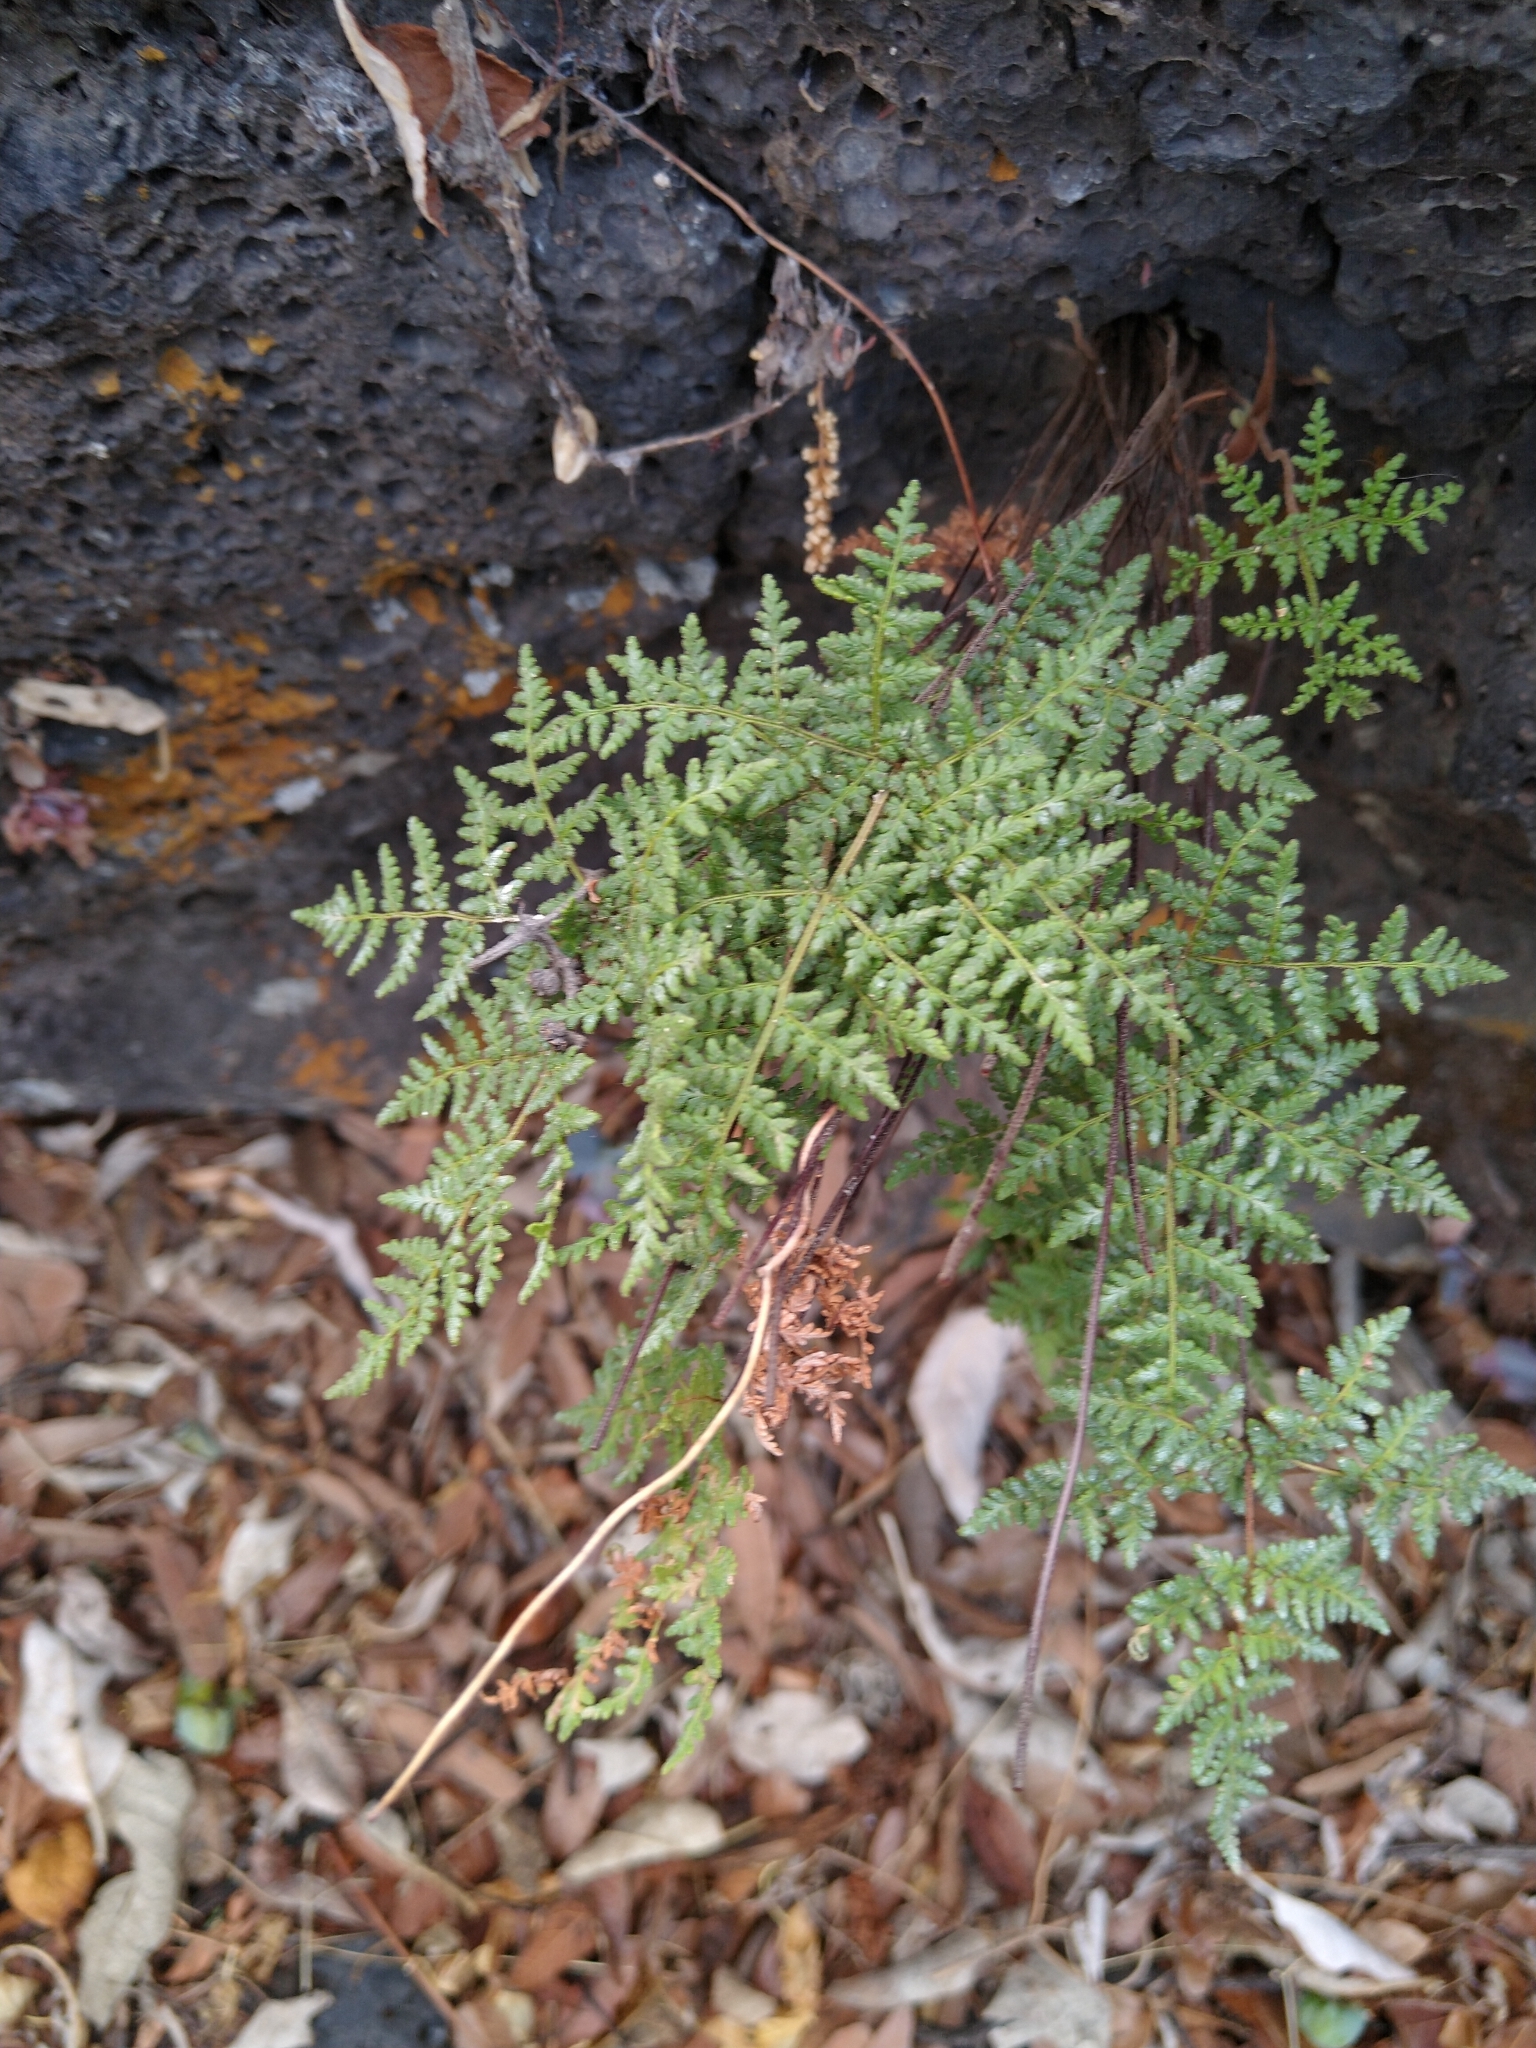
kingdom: Plantae
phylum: Tracheophyta
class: Polypodiopsida
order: Polypodiales
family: Pteridaceae
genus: Gaga
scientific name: Gaga kaulfussii
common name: Glandular lip fern
